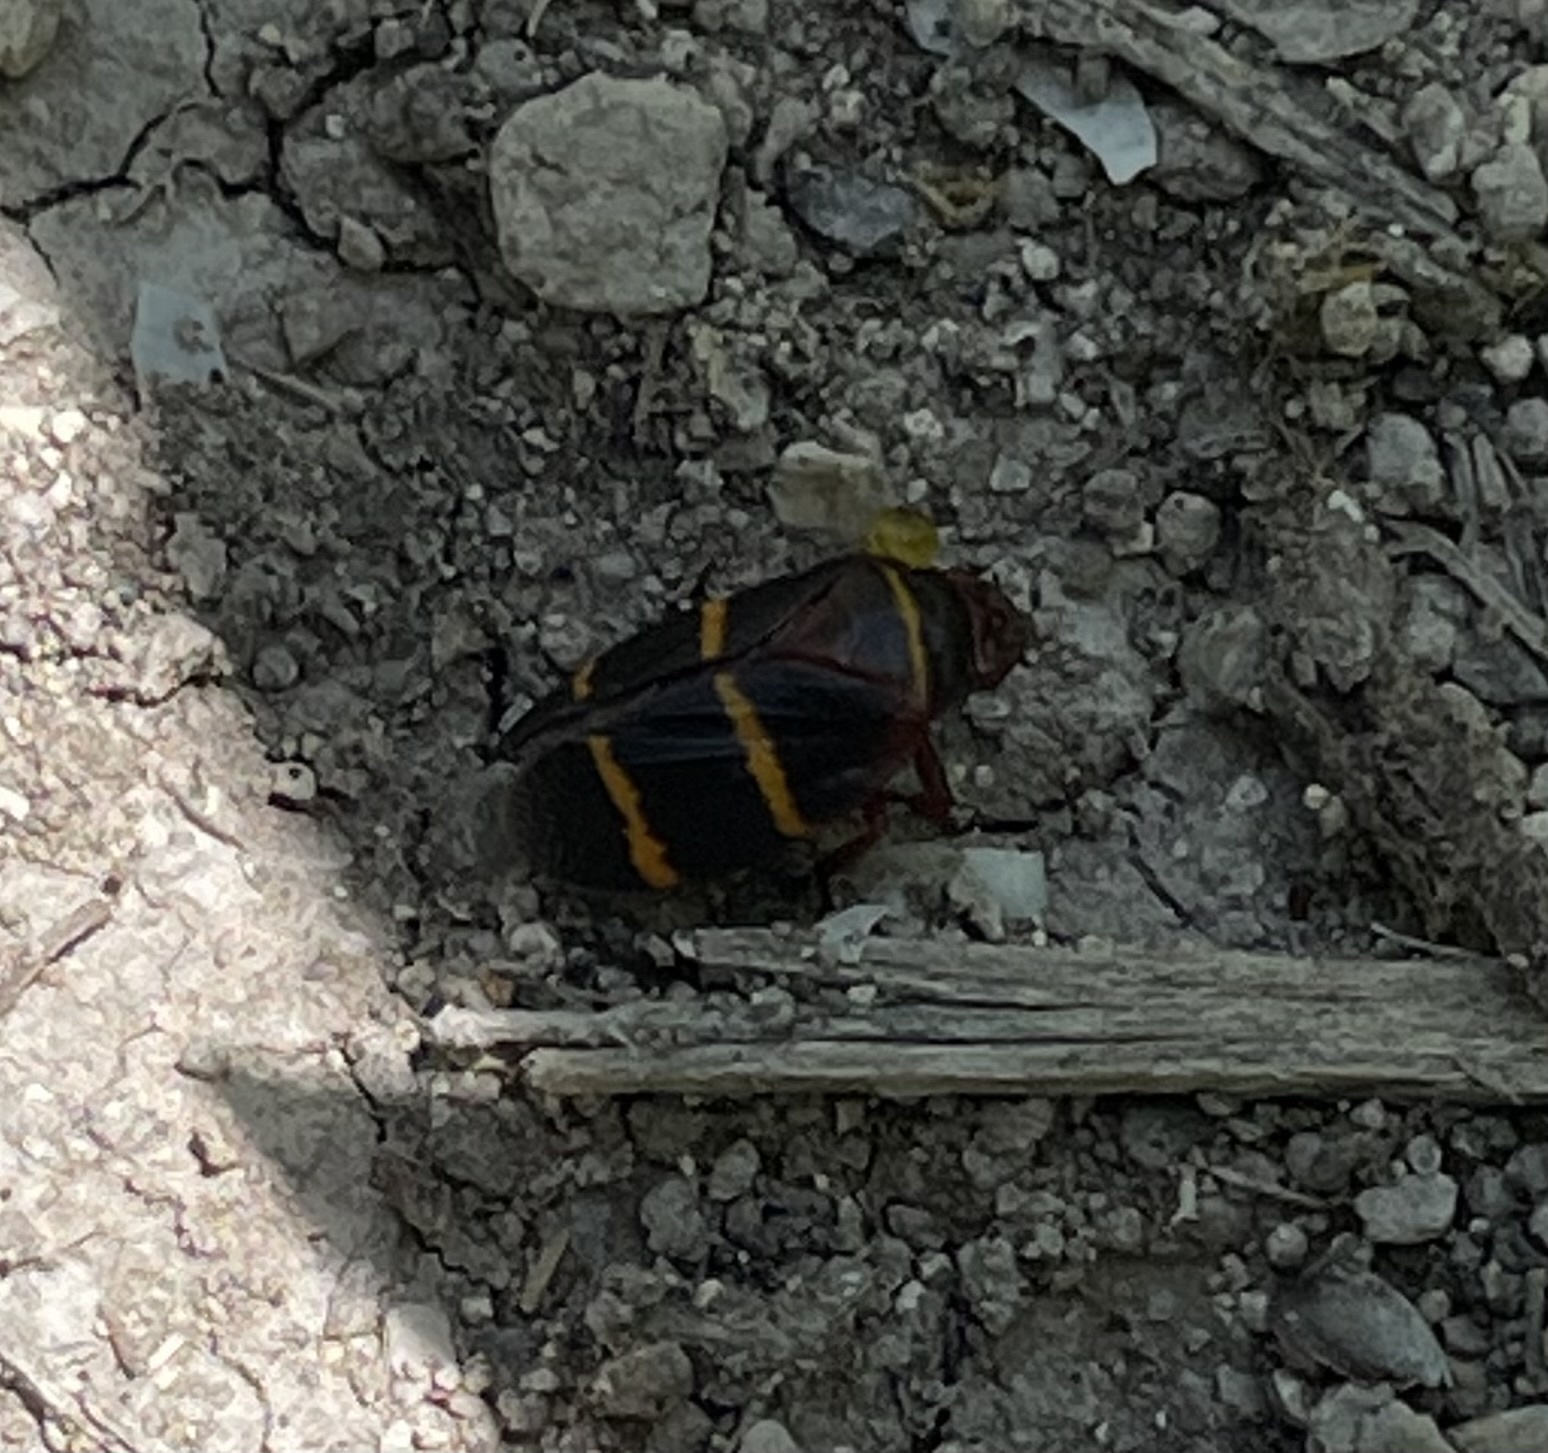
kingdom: Animalia
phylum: Arthropoda
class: Insecta
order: Hemiptera
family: Cercopidae
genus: Prosapia
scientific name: Prosapia bicincta
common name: Twolined spittlebug
